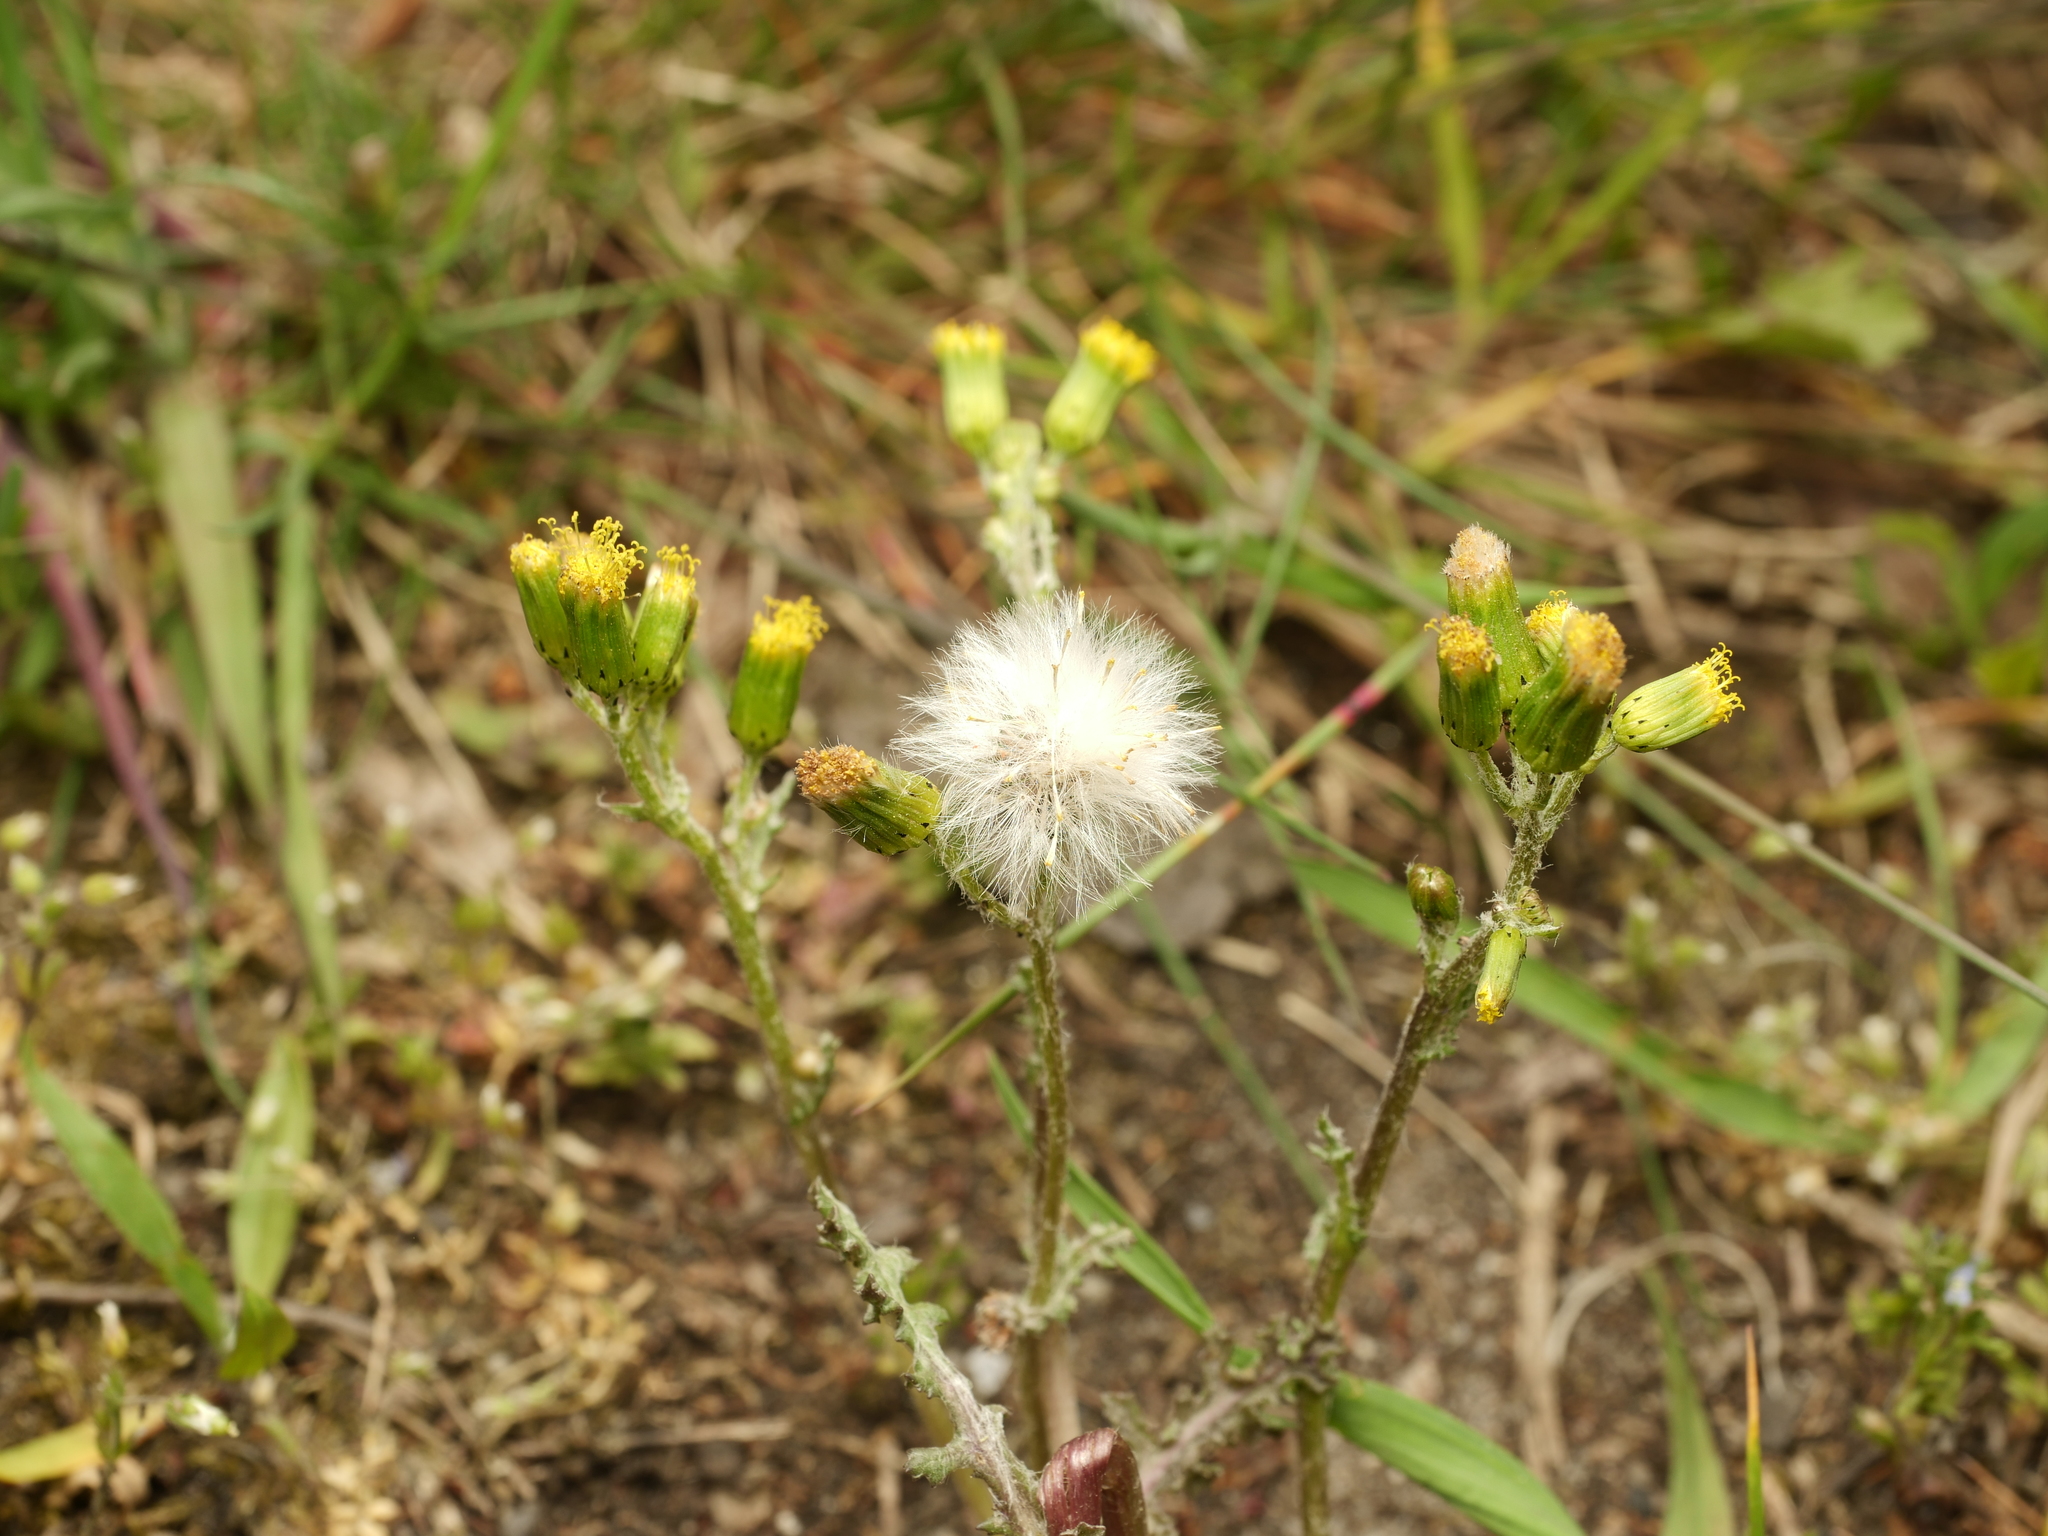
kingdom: Plantae
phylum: Tracheophyta
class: Magnoliopsida
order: Asterales
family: Asteraceae
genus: Senecio
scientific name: Senecio vulgaris
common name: Old-man-in-the-spring
